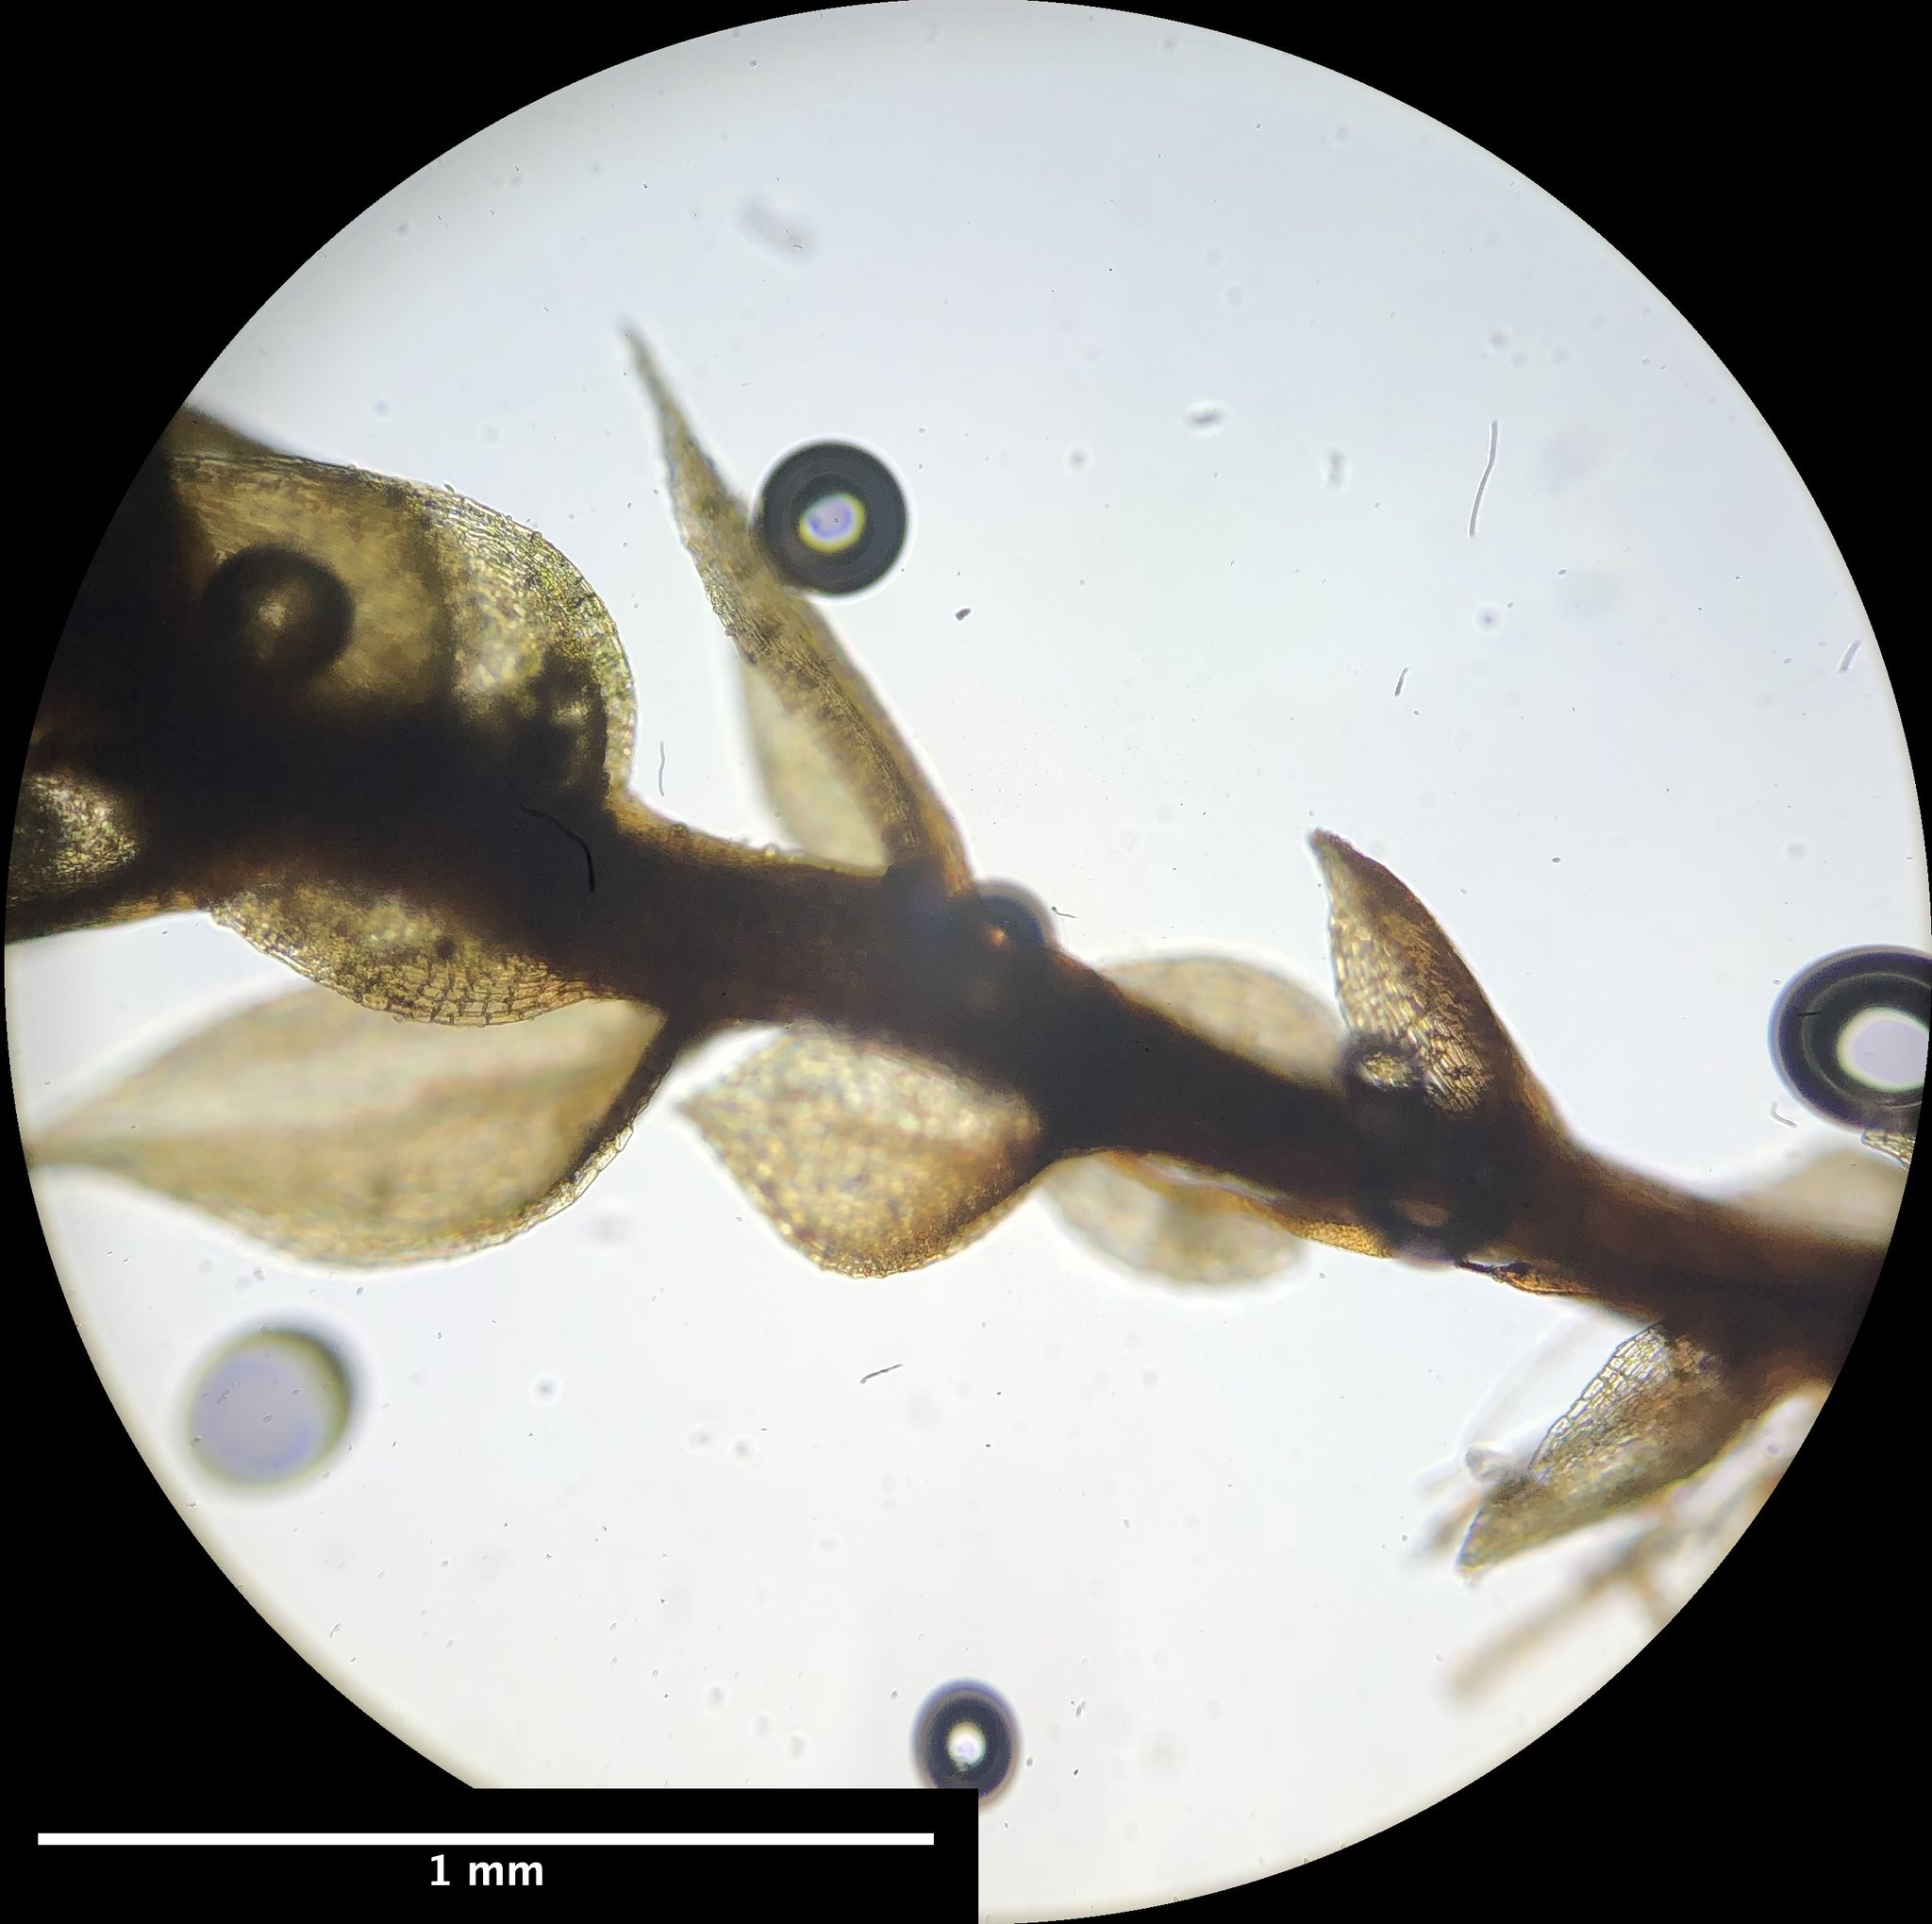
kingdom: Plantae
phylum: Bryophyta
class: Bryopsida
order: Bryales
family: Bryaceae
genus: Gemmabryum
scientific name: Gemmabryum dichotomum
